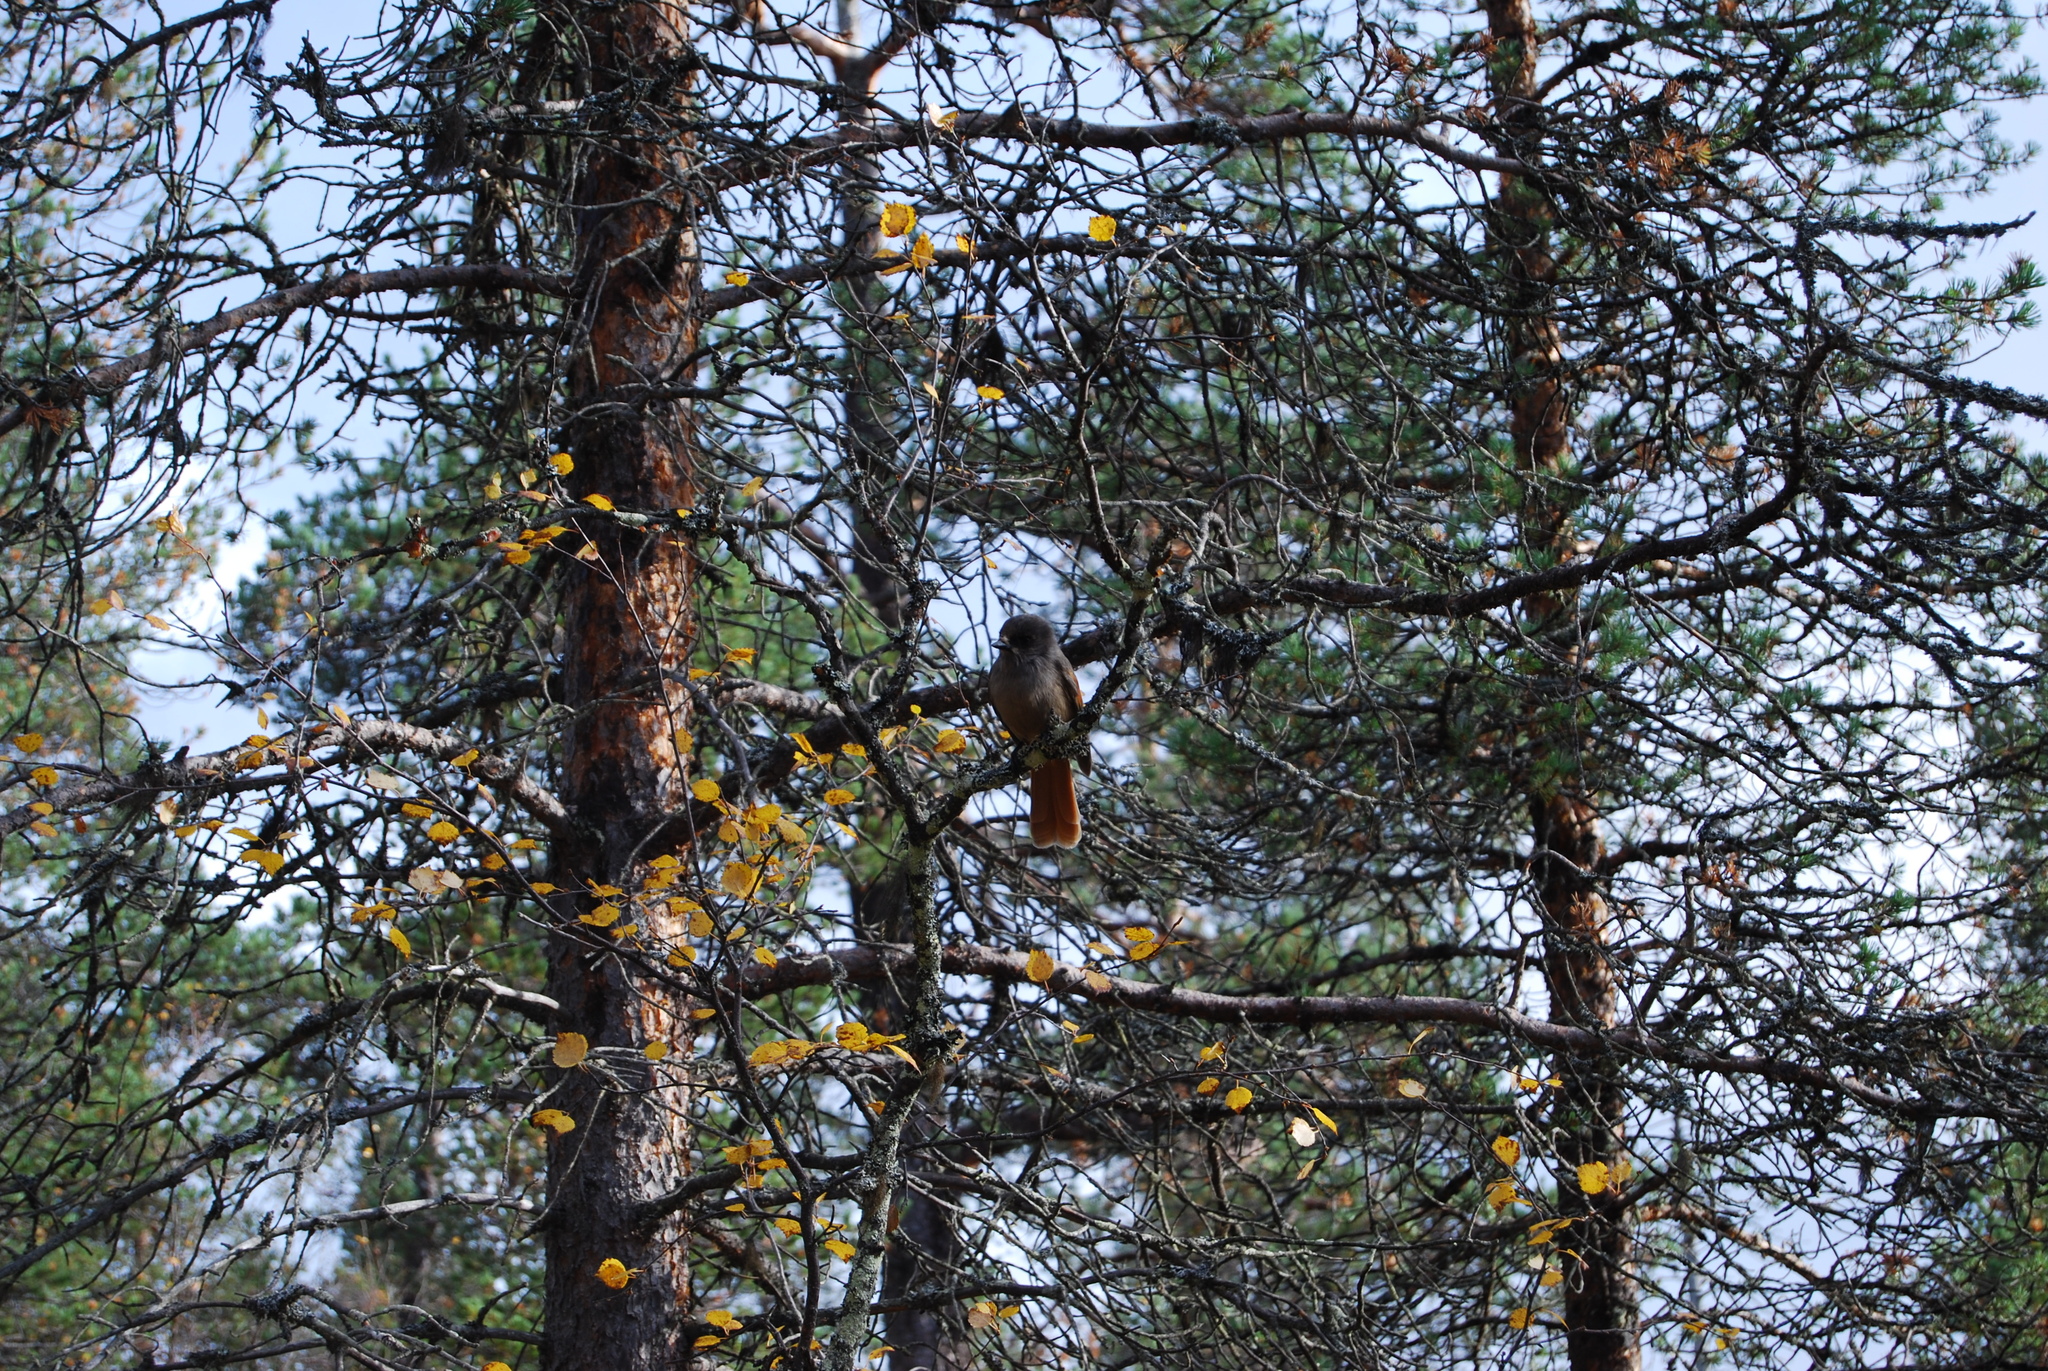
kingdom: Animalia
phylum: Chordata
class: Aves
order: Passeriformes
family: Corvidae
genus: Perisoreus
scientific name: Perisoreus infaustus
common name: Siberian jay
